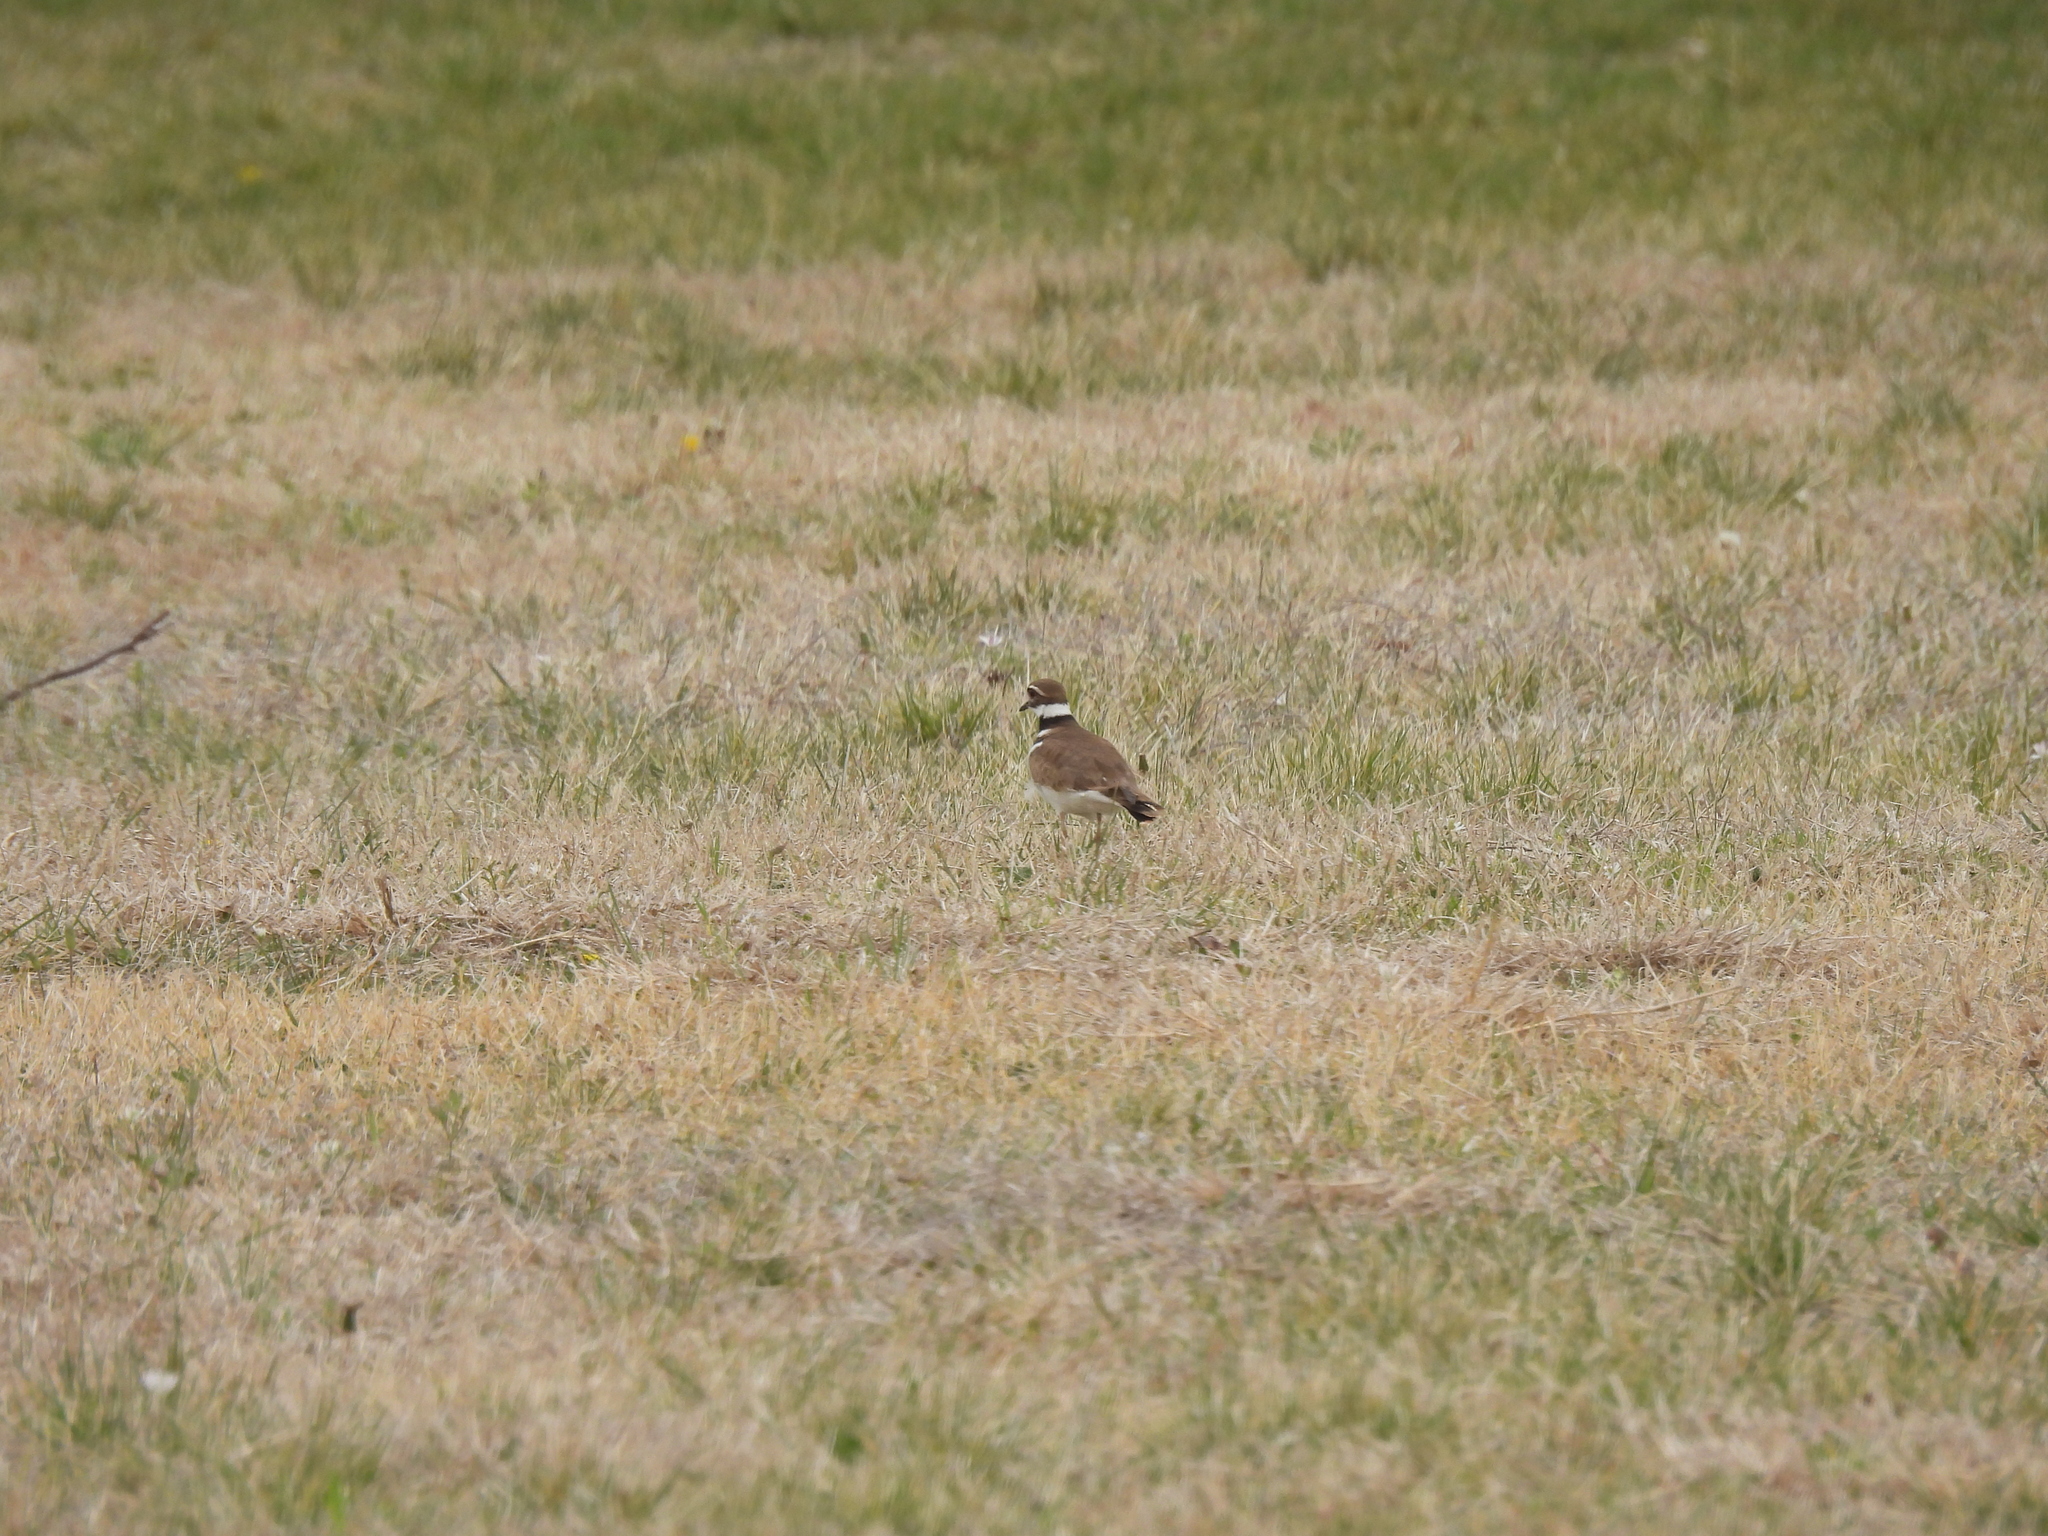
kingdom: Animalia
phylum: Chordata
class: Aves
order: Charadriiformes
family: Charadriidae
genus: Charadrius
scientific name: Charadrius vociferus
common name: Killdeer
